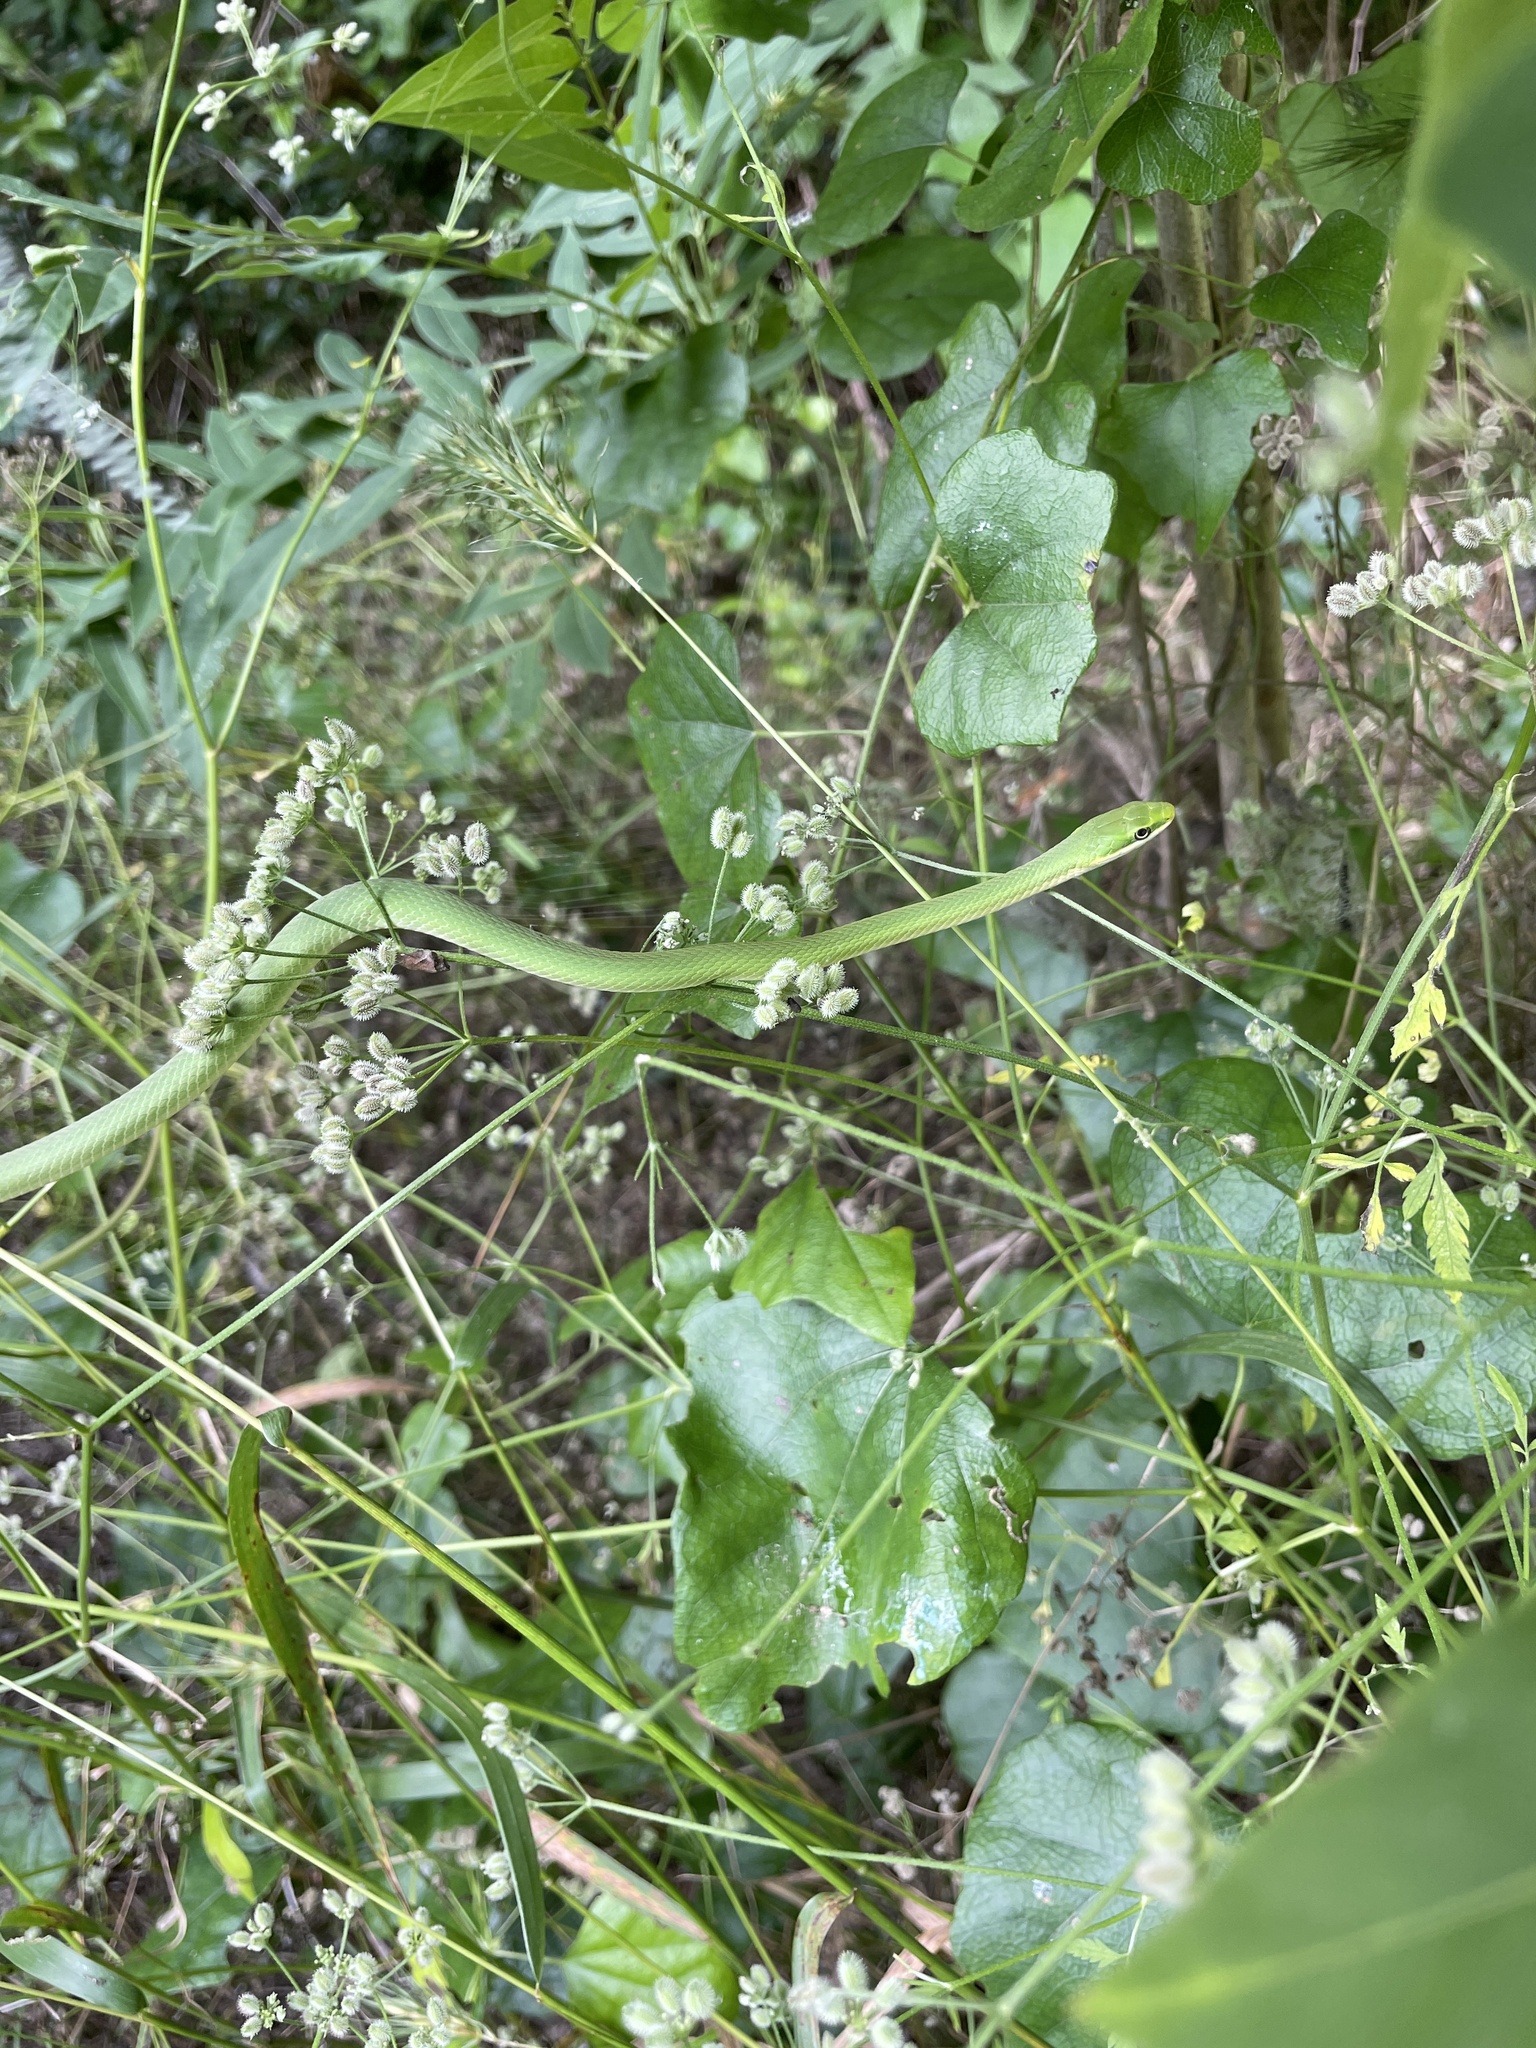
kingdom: Animalia
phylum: Chordata
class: Squamata
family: Colubridae
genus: Opheodrys
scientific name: Opheodrys aestivus
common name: Rough greensnake
